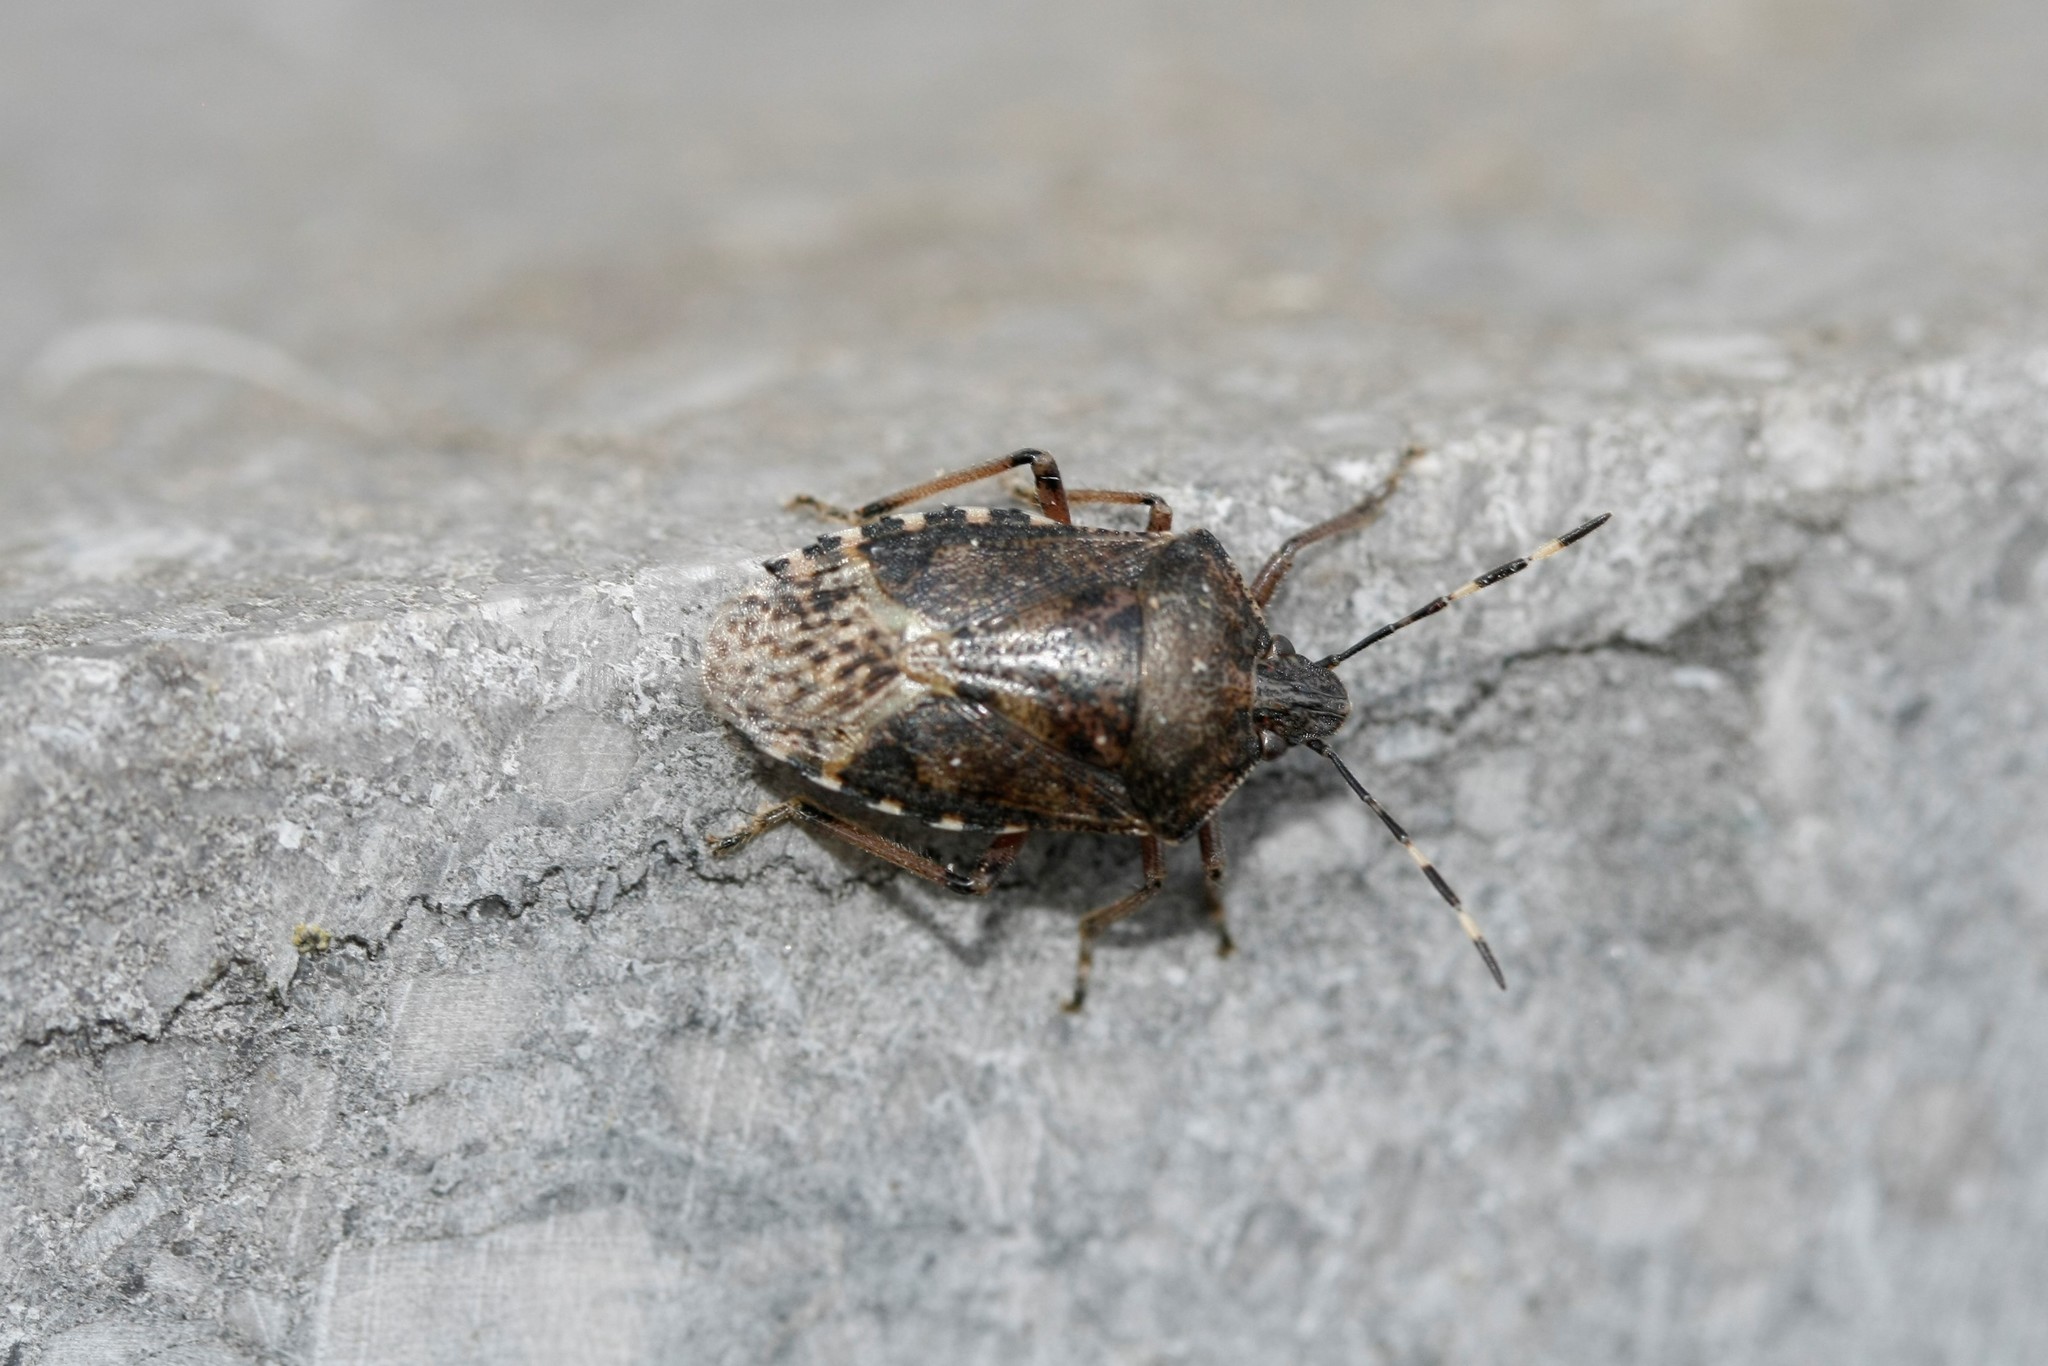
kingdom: Animalia
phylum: Arthropoda
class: Insecta
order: Hemiptera
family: Pentatomidae
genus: Rhaphigaster
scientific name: Rhaphigaster nebulosa
